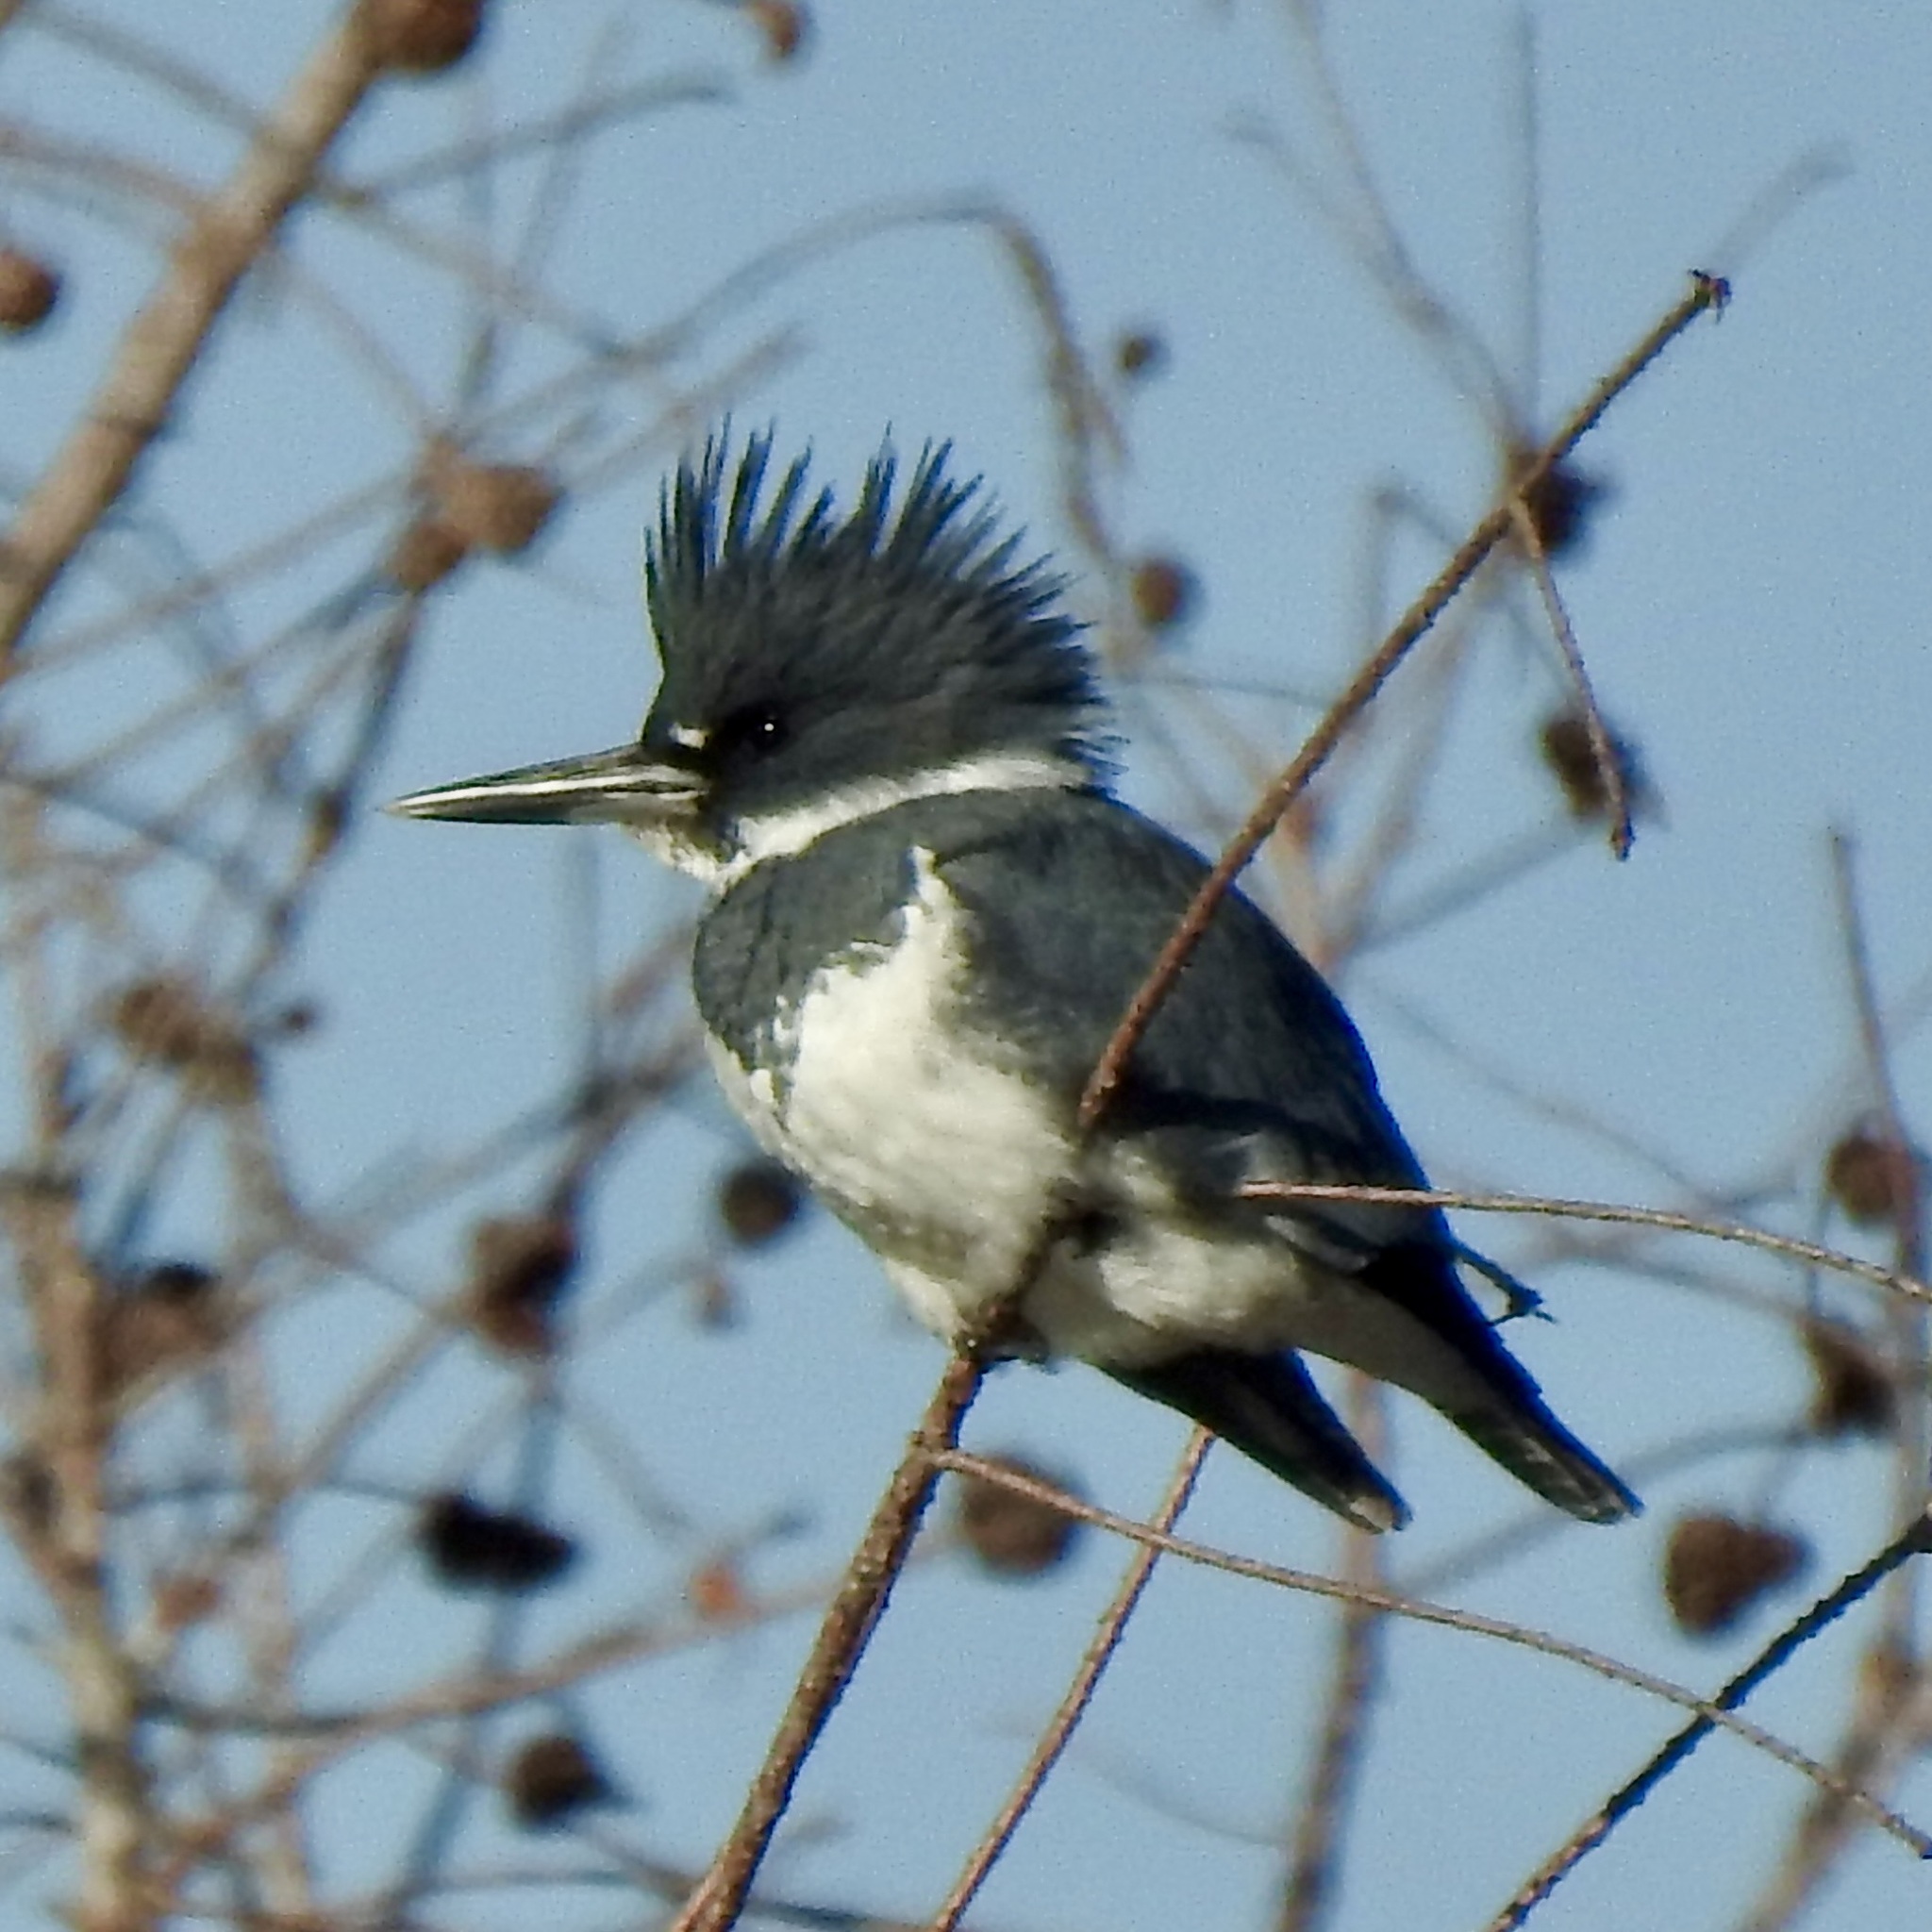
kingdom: Animalia
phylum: Chordata
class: Aves
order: Coraciiformes
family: Alcedinidae
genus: Megaceryle
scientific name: Megaceryle alcyon
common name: Belted kingfisher
